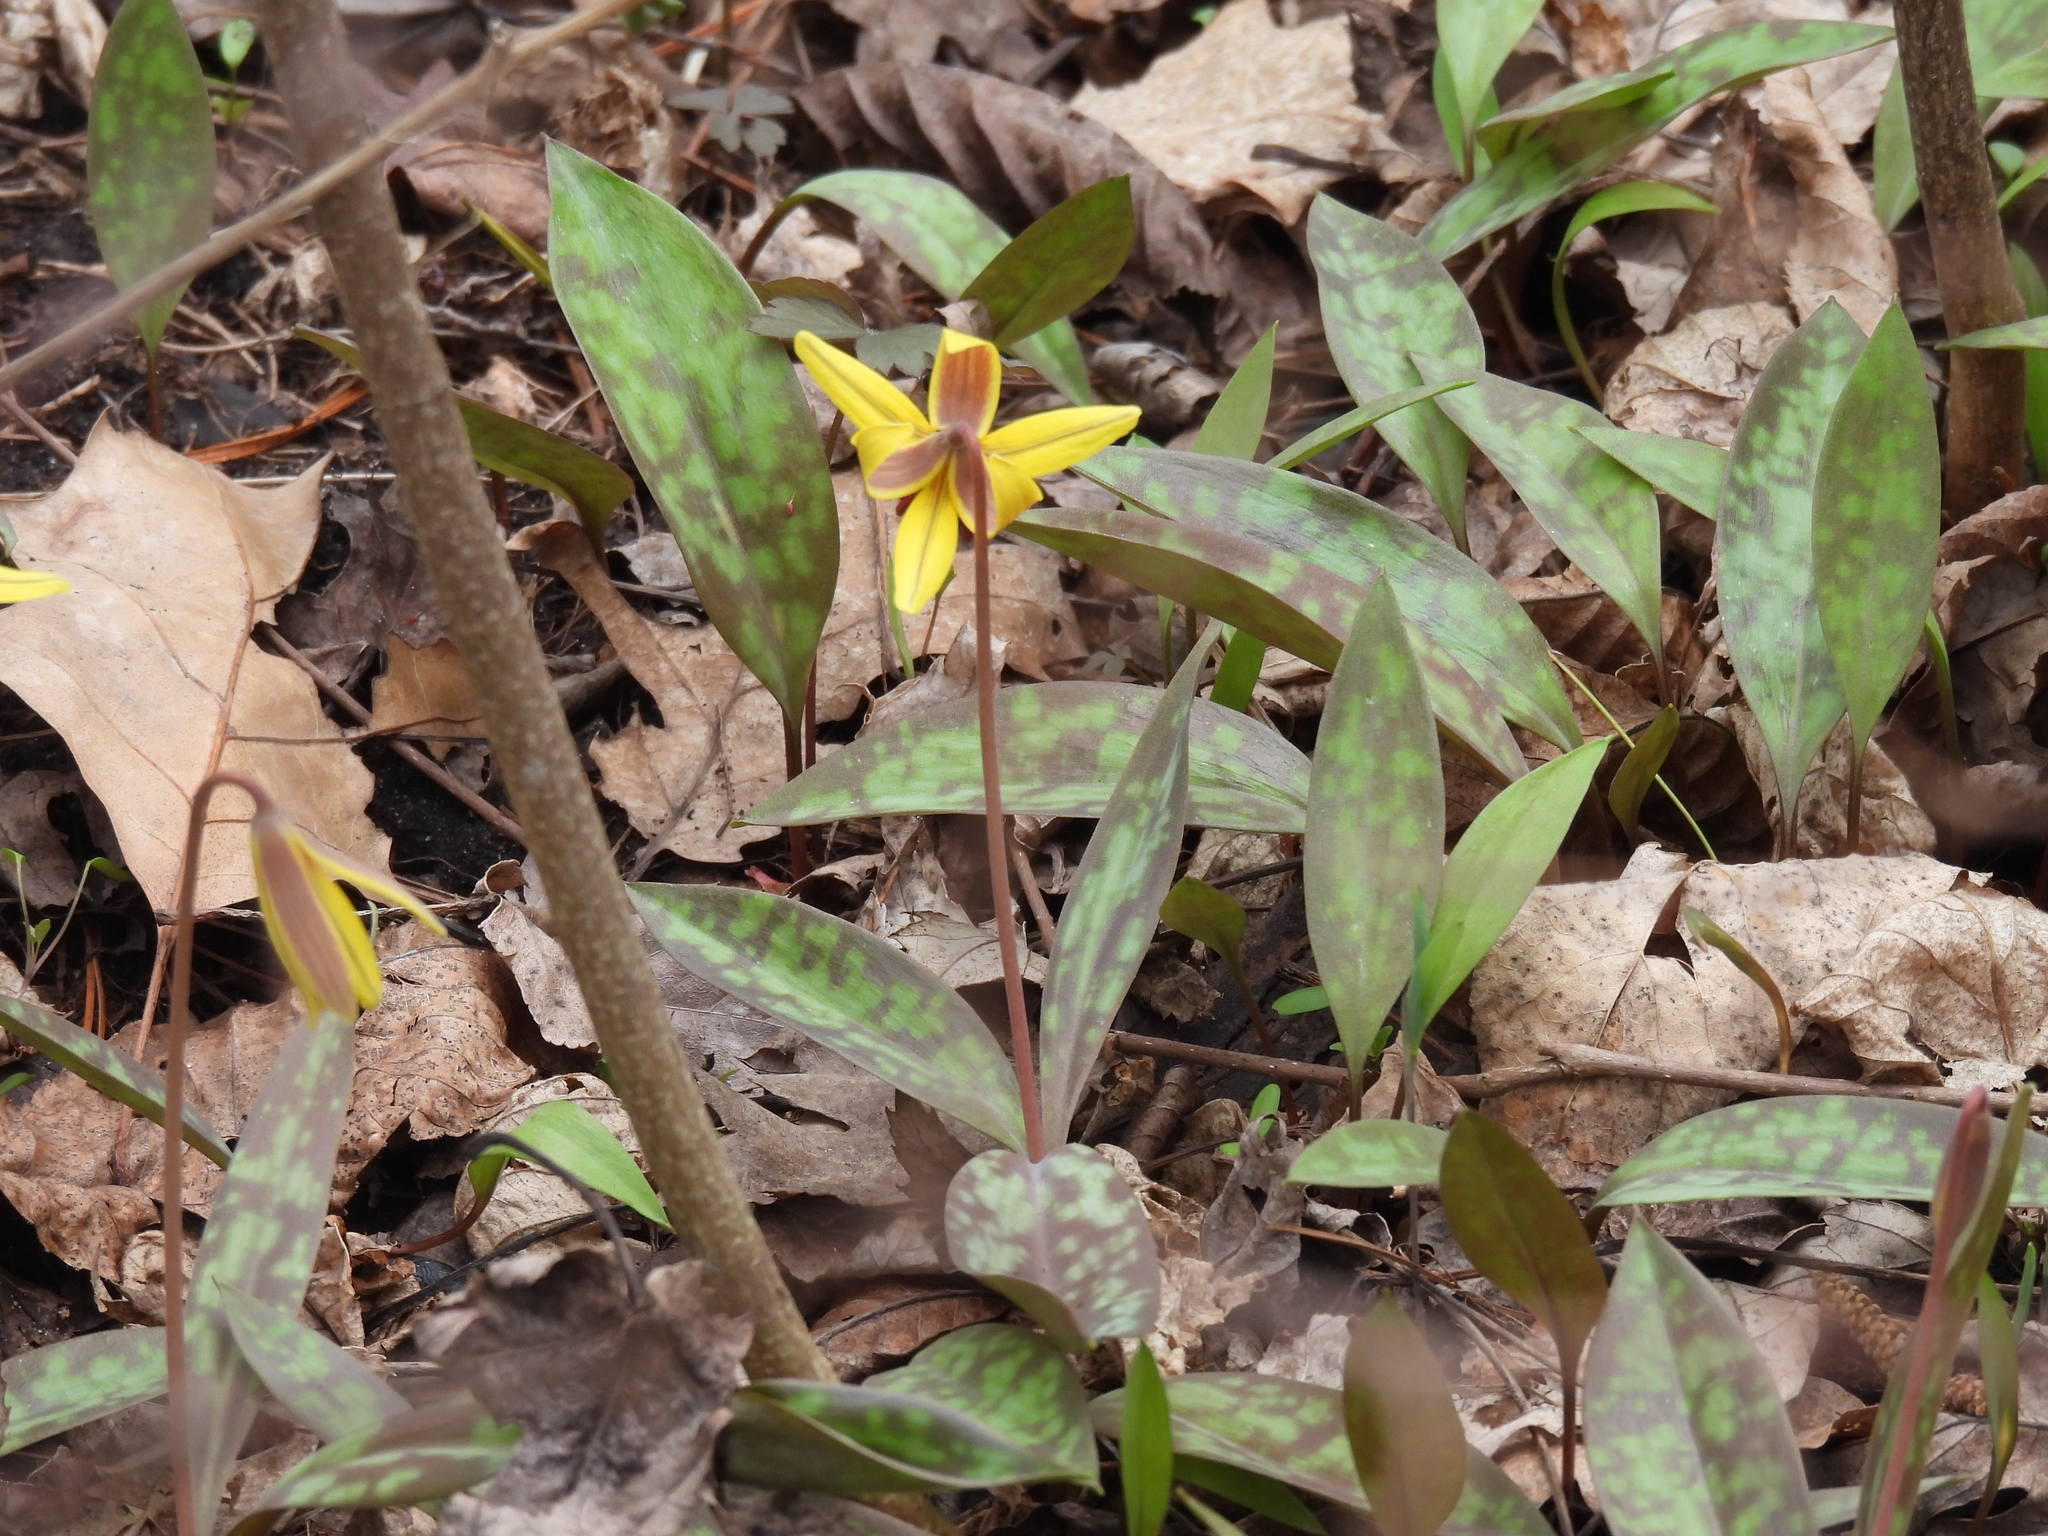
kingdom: Plantae
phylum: Tracheophyta
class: Liliopsida
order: Liliales
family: Liliaceae
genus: Erythronium
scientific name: Erythronium americanum
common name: Yellow adder's-tongue
